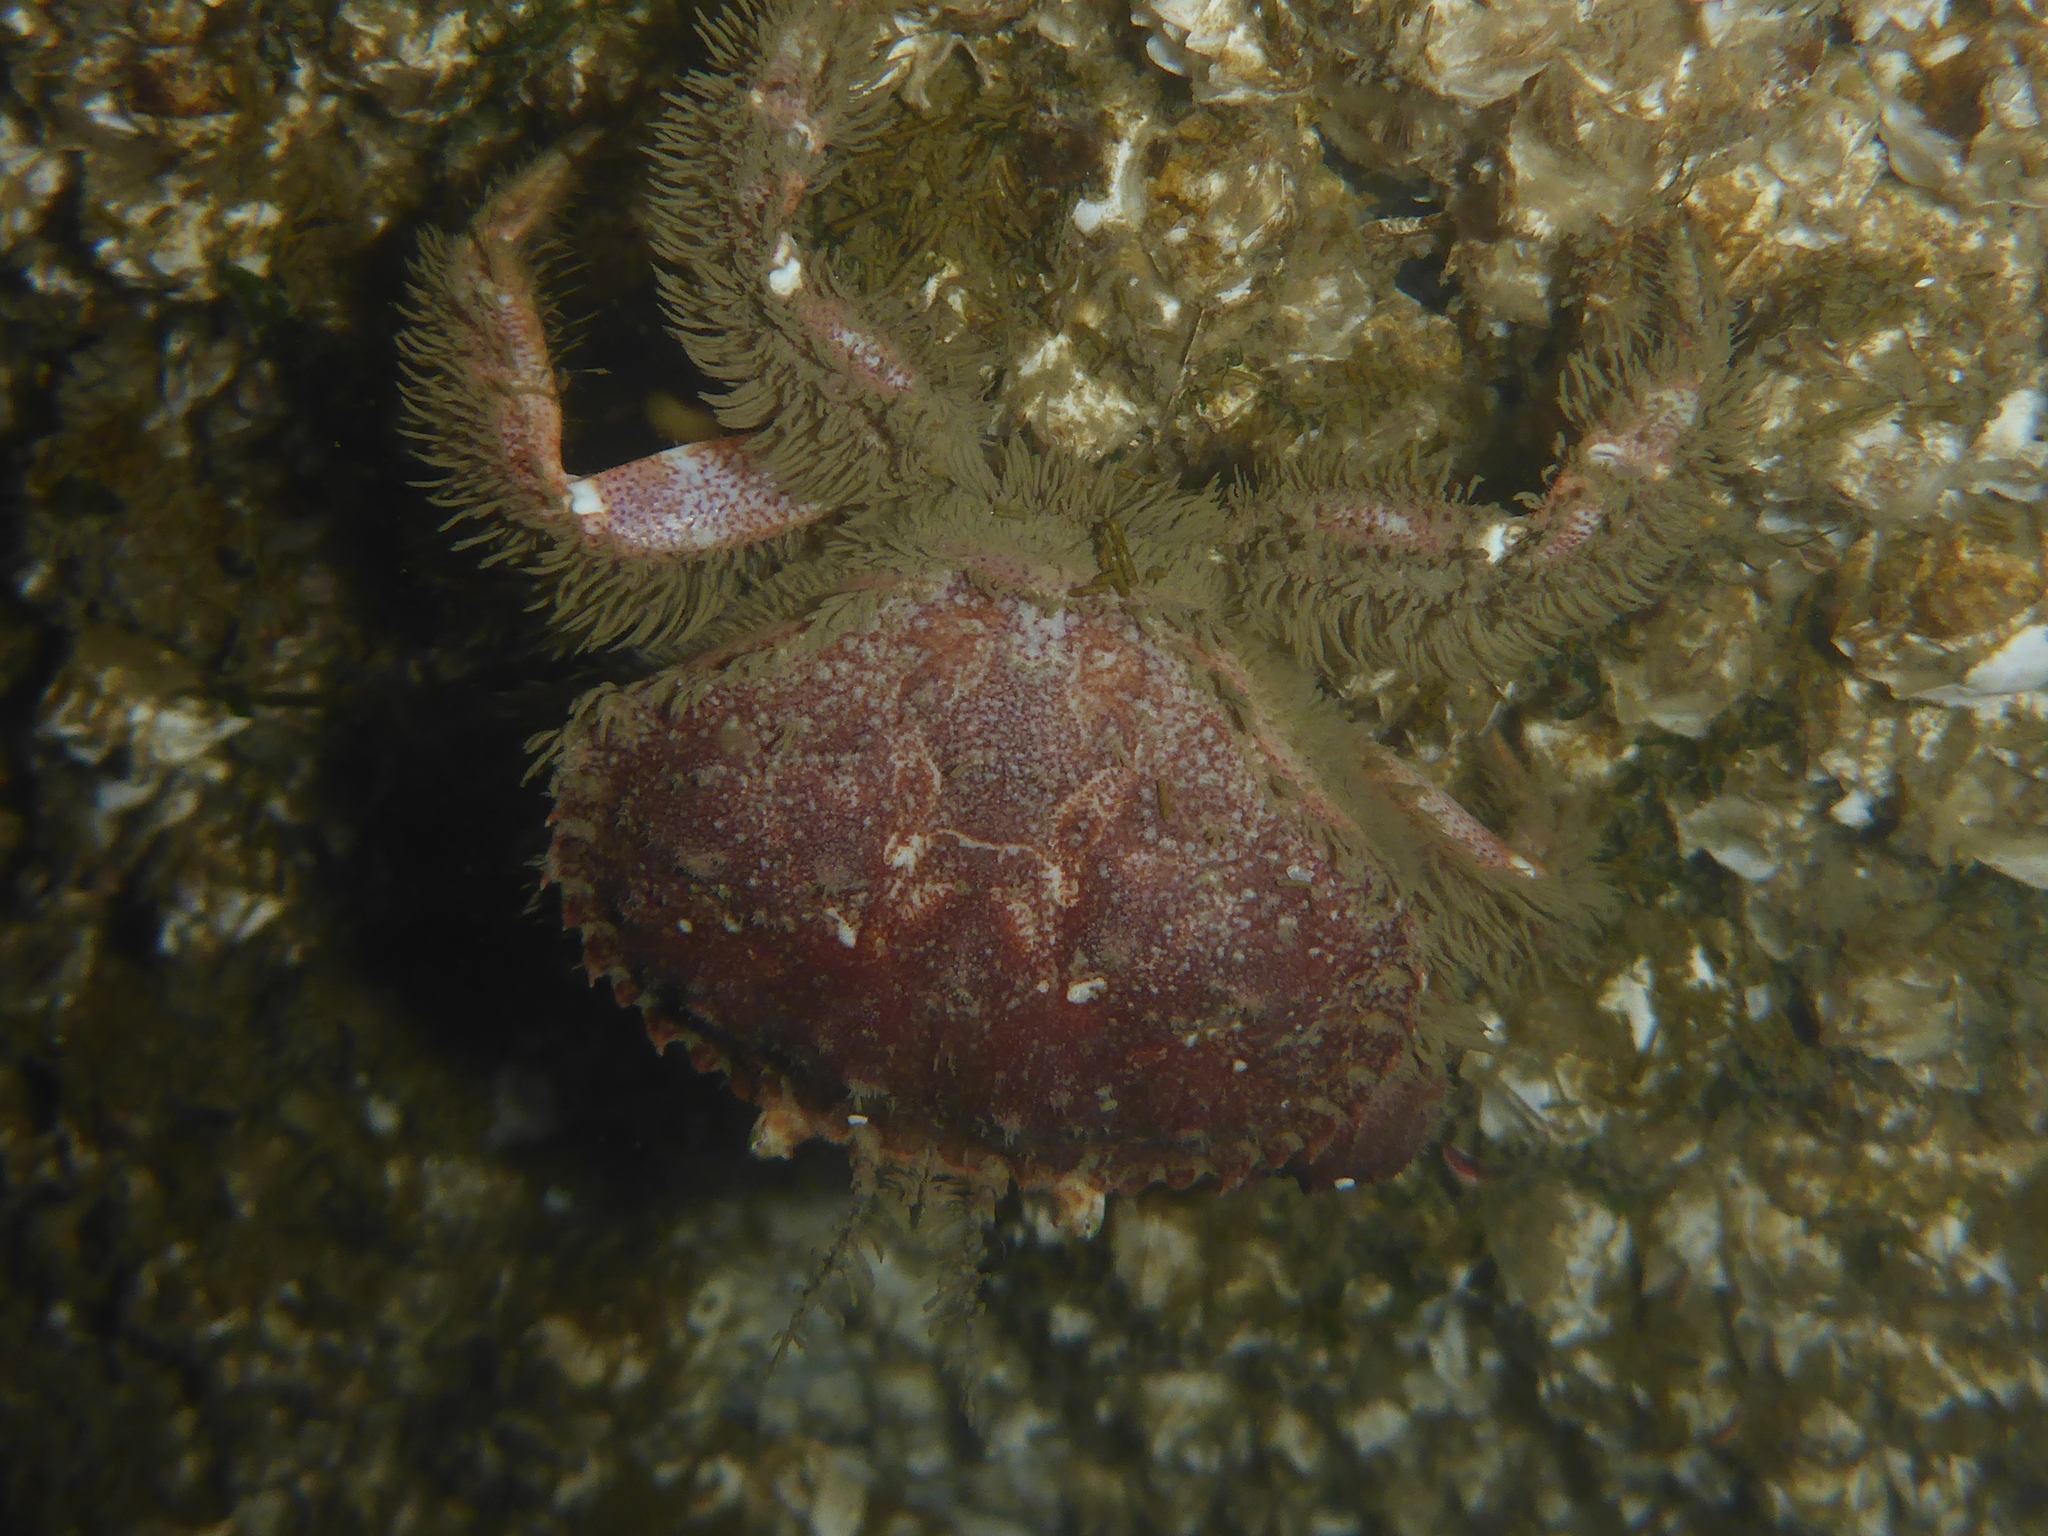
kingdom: Animalia
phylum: Arthropoda
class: Malacostraca
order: Decapoda
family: Cancridae
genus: Glebocarcinus
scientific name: Glebocarcinus oregonensis
